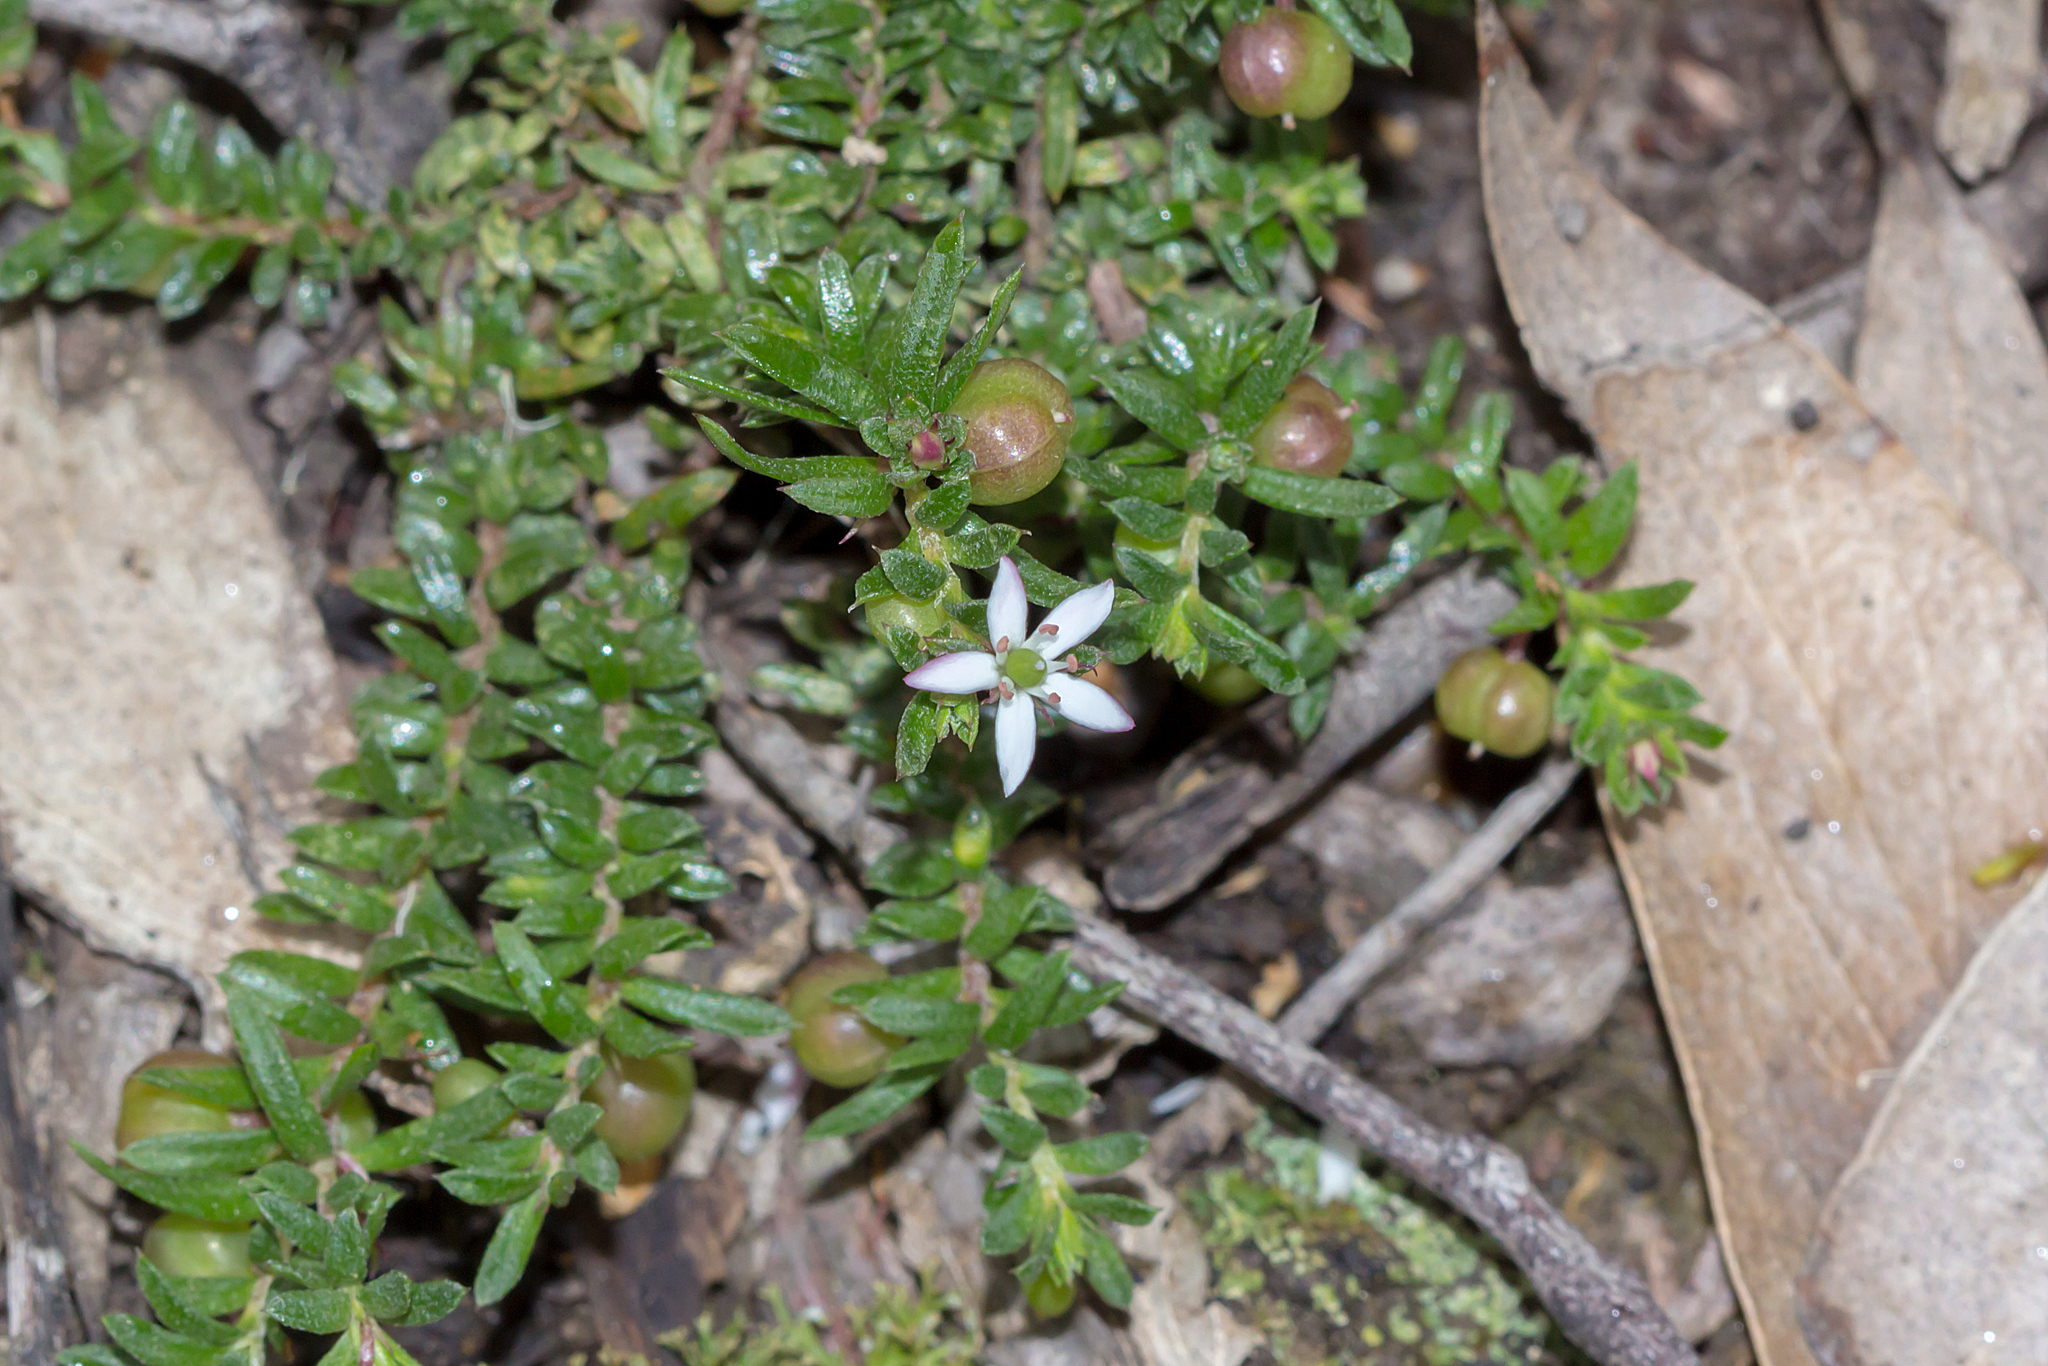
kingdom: Plantae
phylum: Tracheophyta
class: Magnoliopsida
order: Apiales
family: Pittosporaceae
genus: Rhytidosporum
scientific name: Rhytidosporum procumbens
